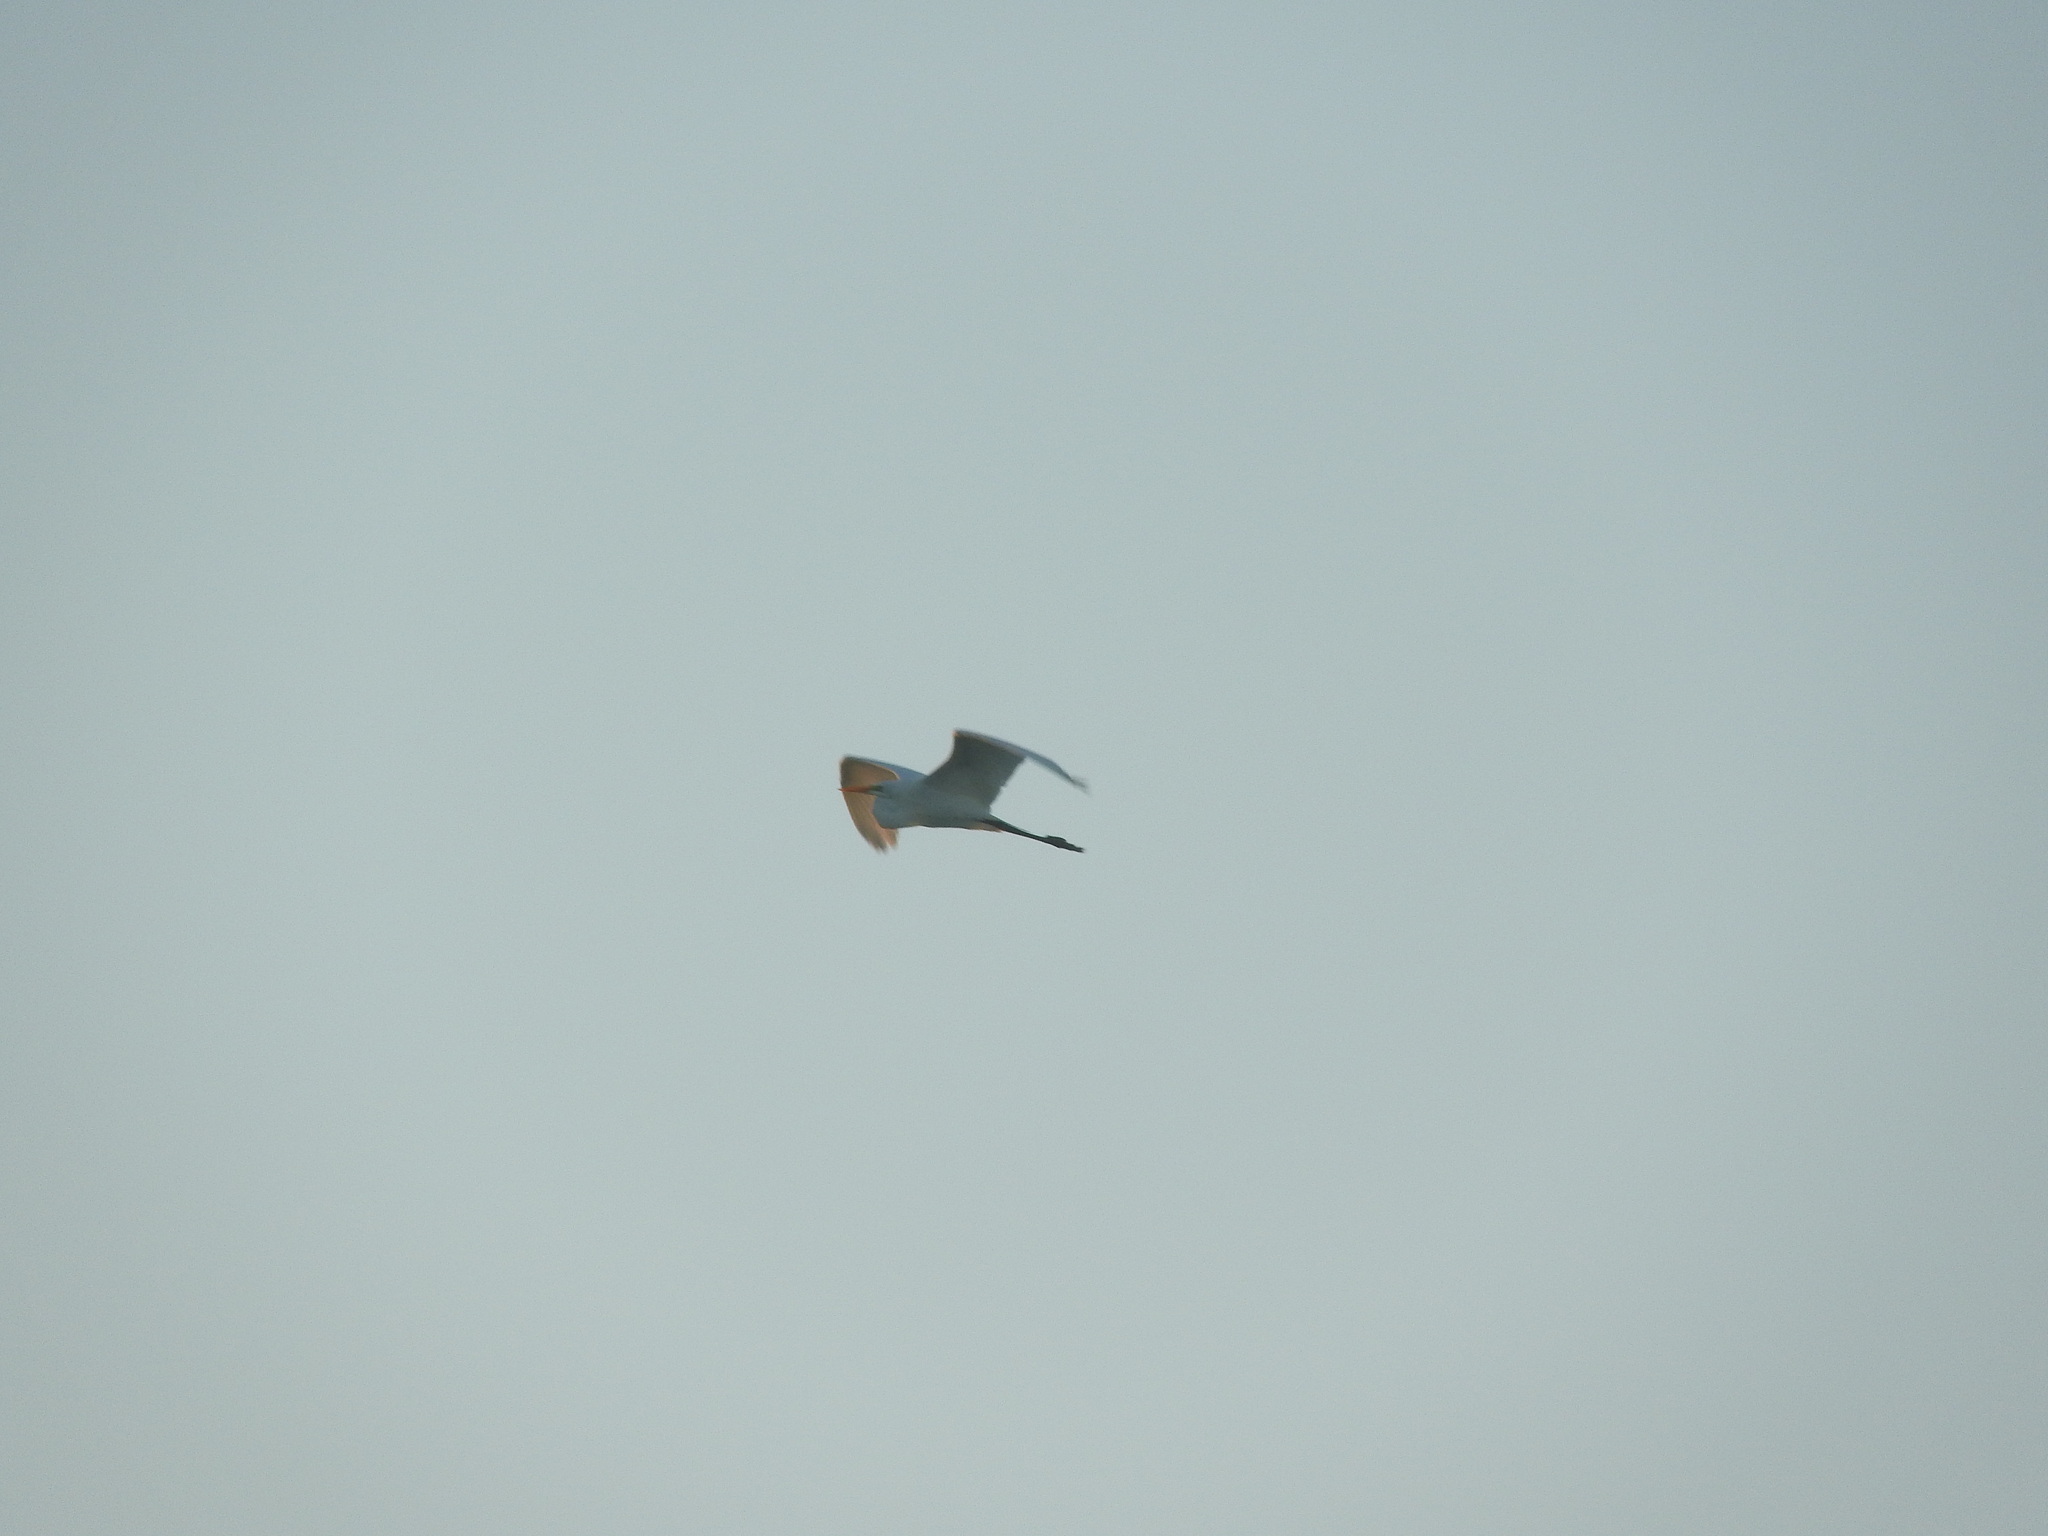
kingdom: Animalia
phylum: Chordata
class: Aves
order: Pelecaniformes
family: Ardeidae
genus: Ardea
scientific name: Ardea alba
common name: Great egret
